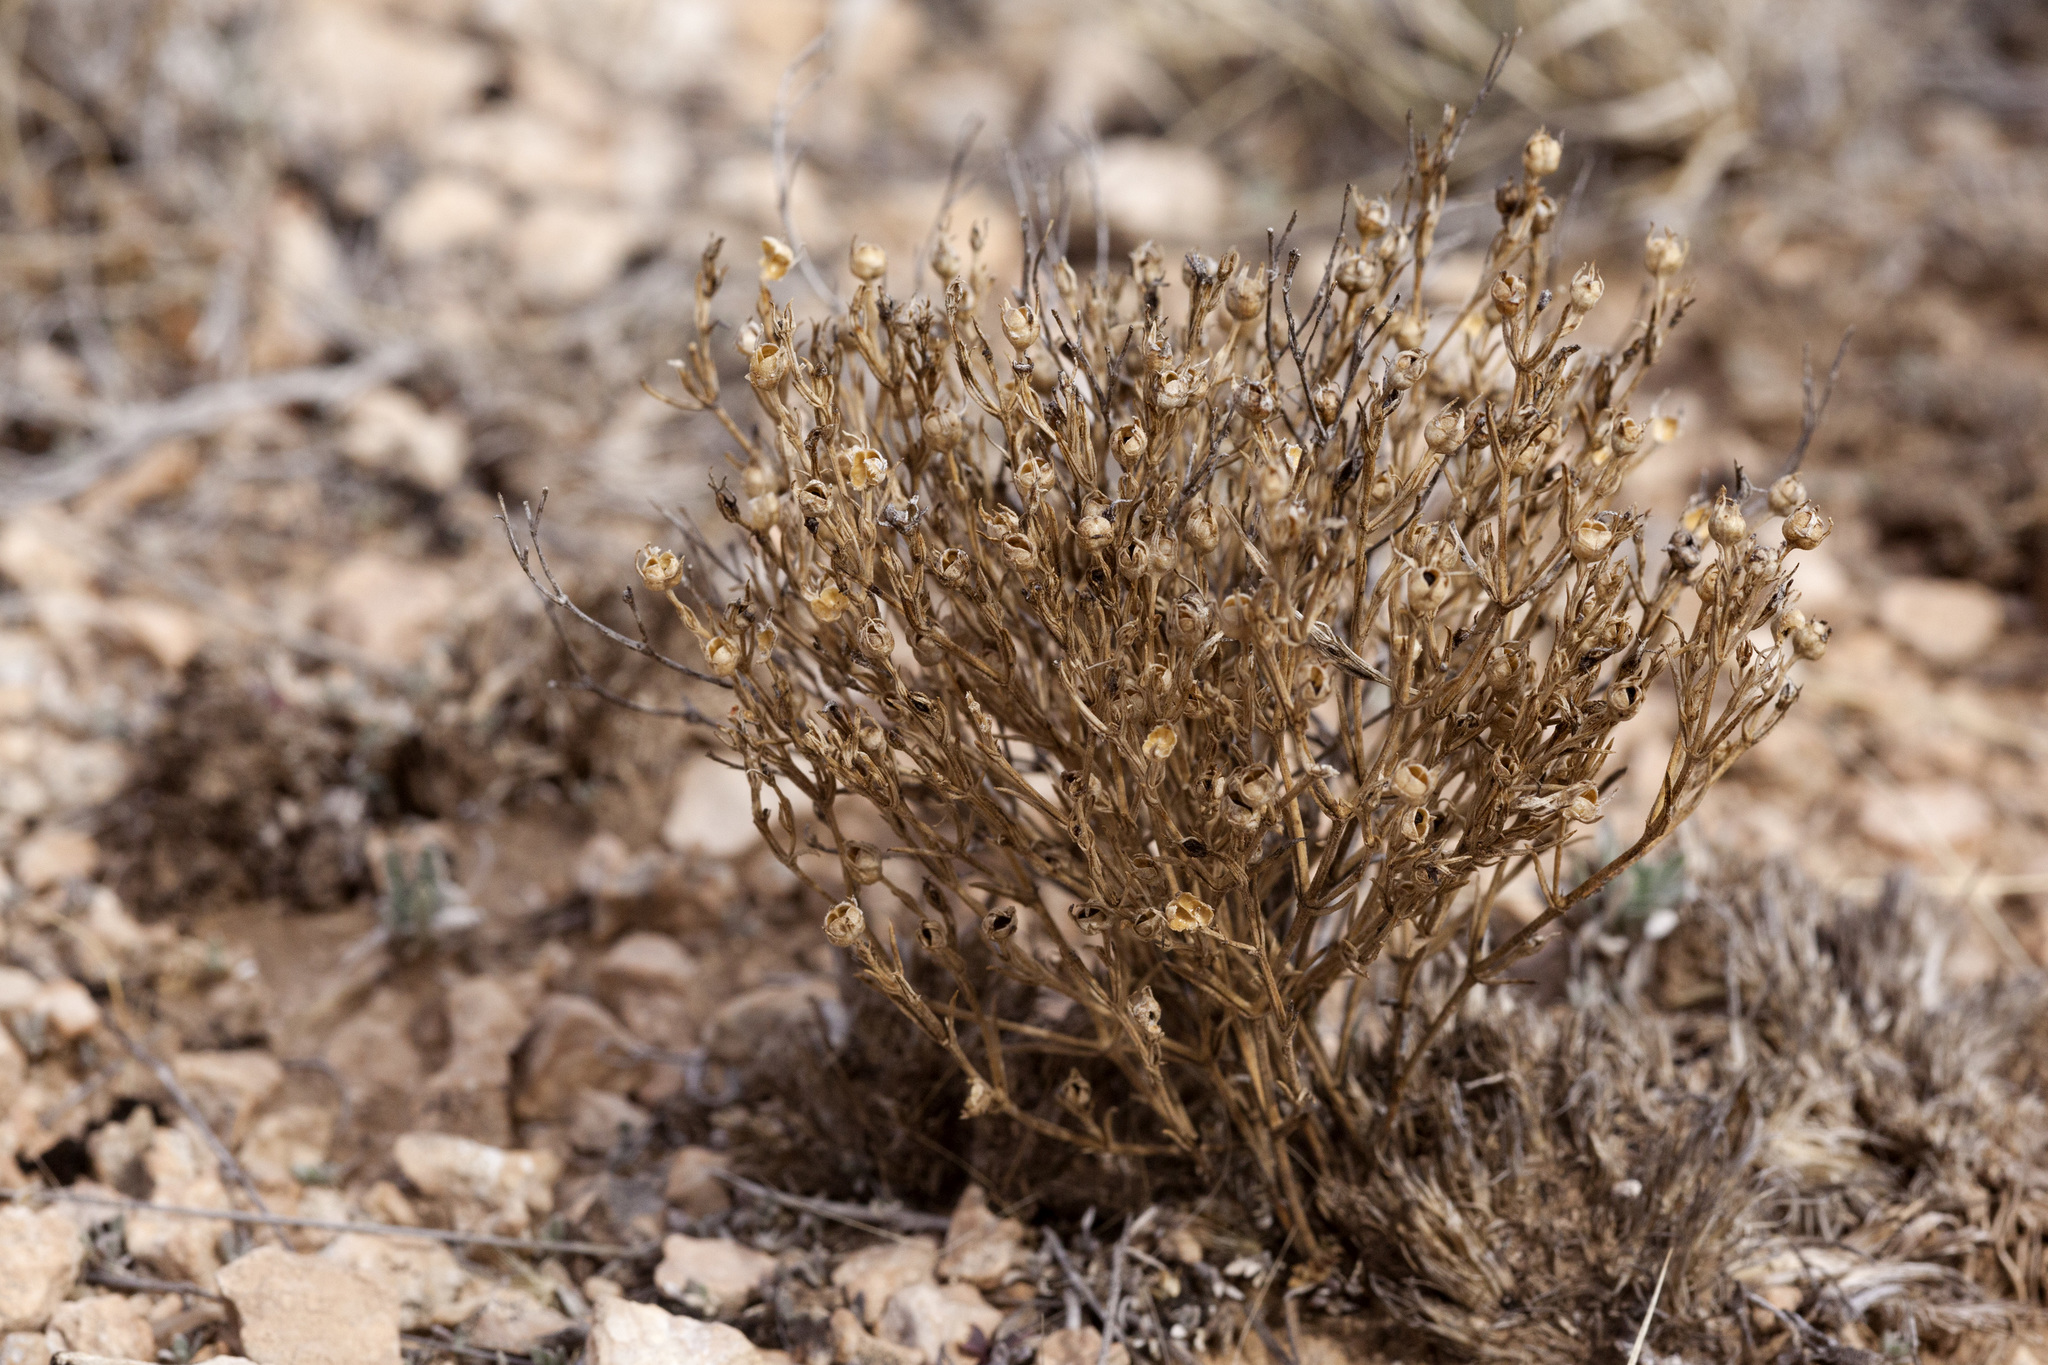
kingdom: Plantae
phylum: Tracheophyta
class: Magnoliopsida
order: Gentianales
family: Rubiaceae
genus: Houstonia
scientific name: Houstonia acerosa
